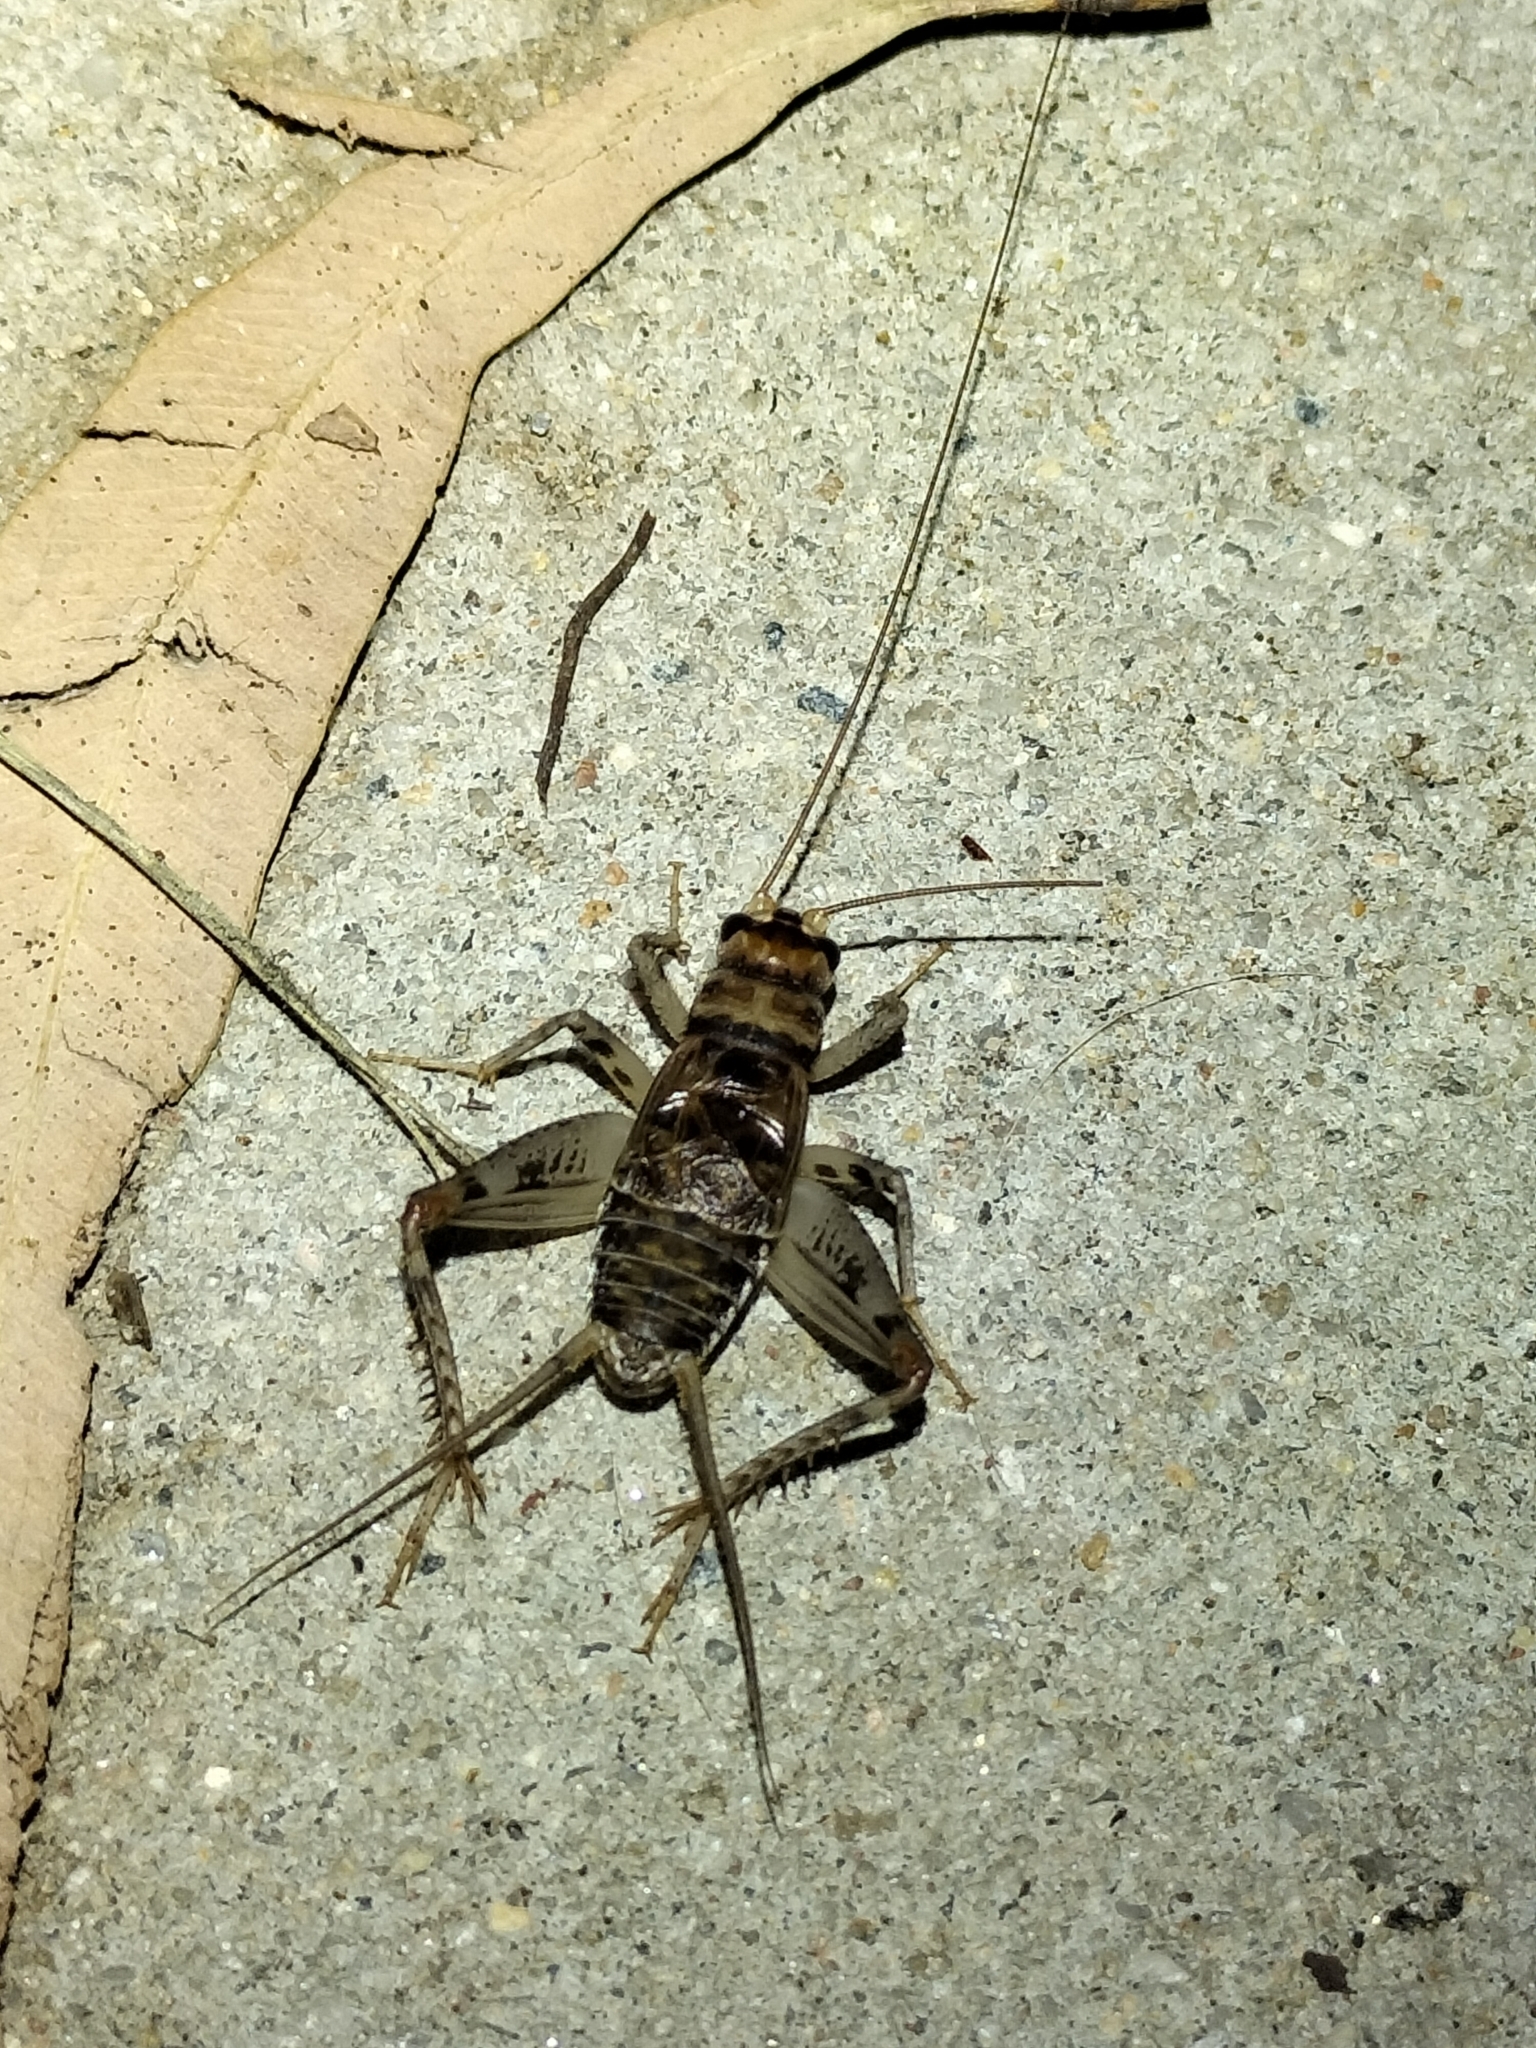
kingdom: Animalia
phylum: Arthropoda
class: Insecta
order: Orthoptera
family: Gryllidae
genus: Gryllodes
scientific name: Gryllodes sigillatus
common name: Tropical house cricket
